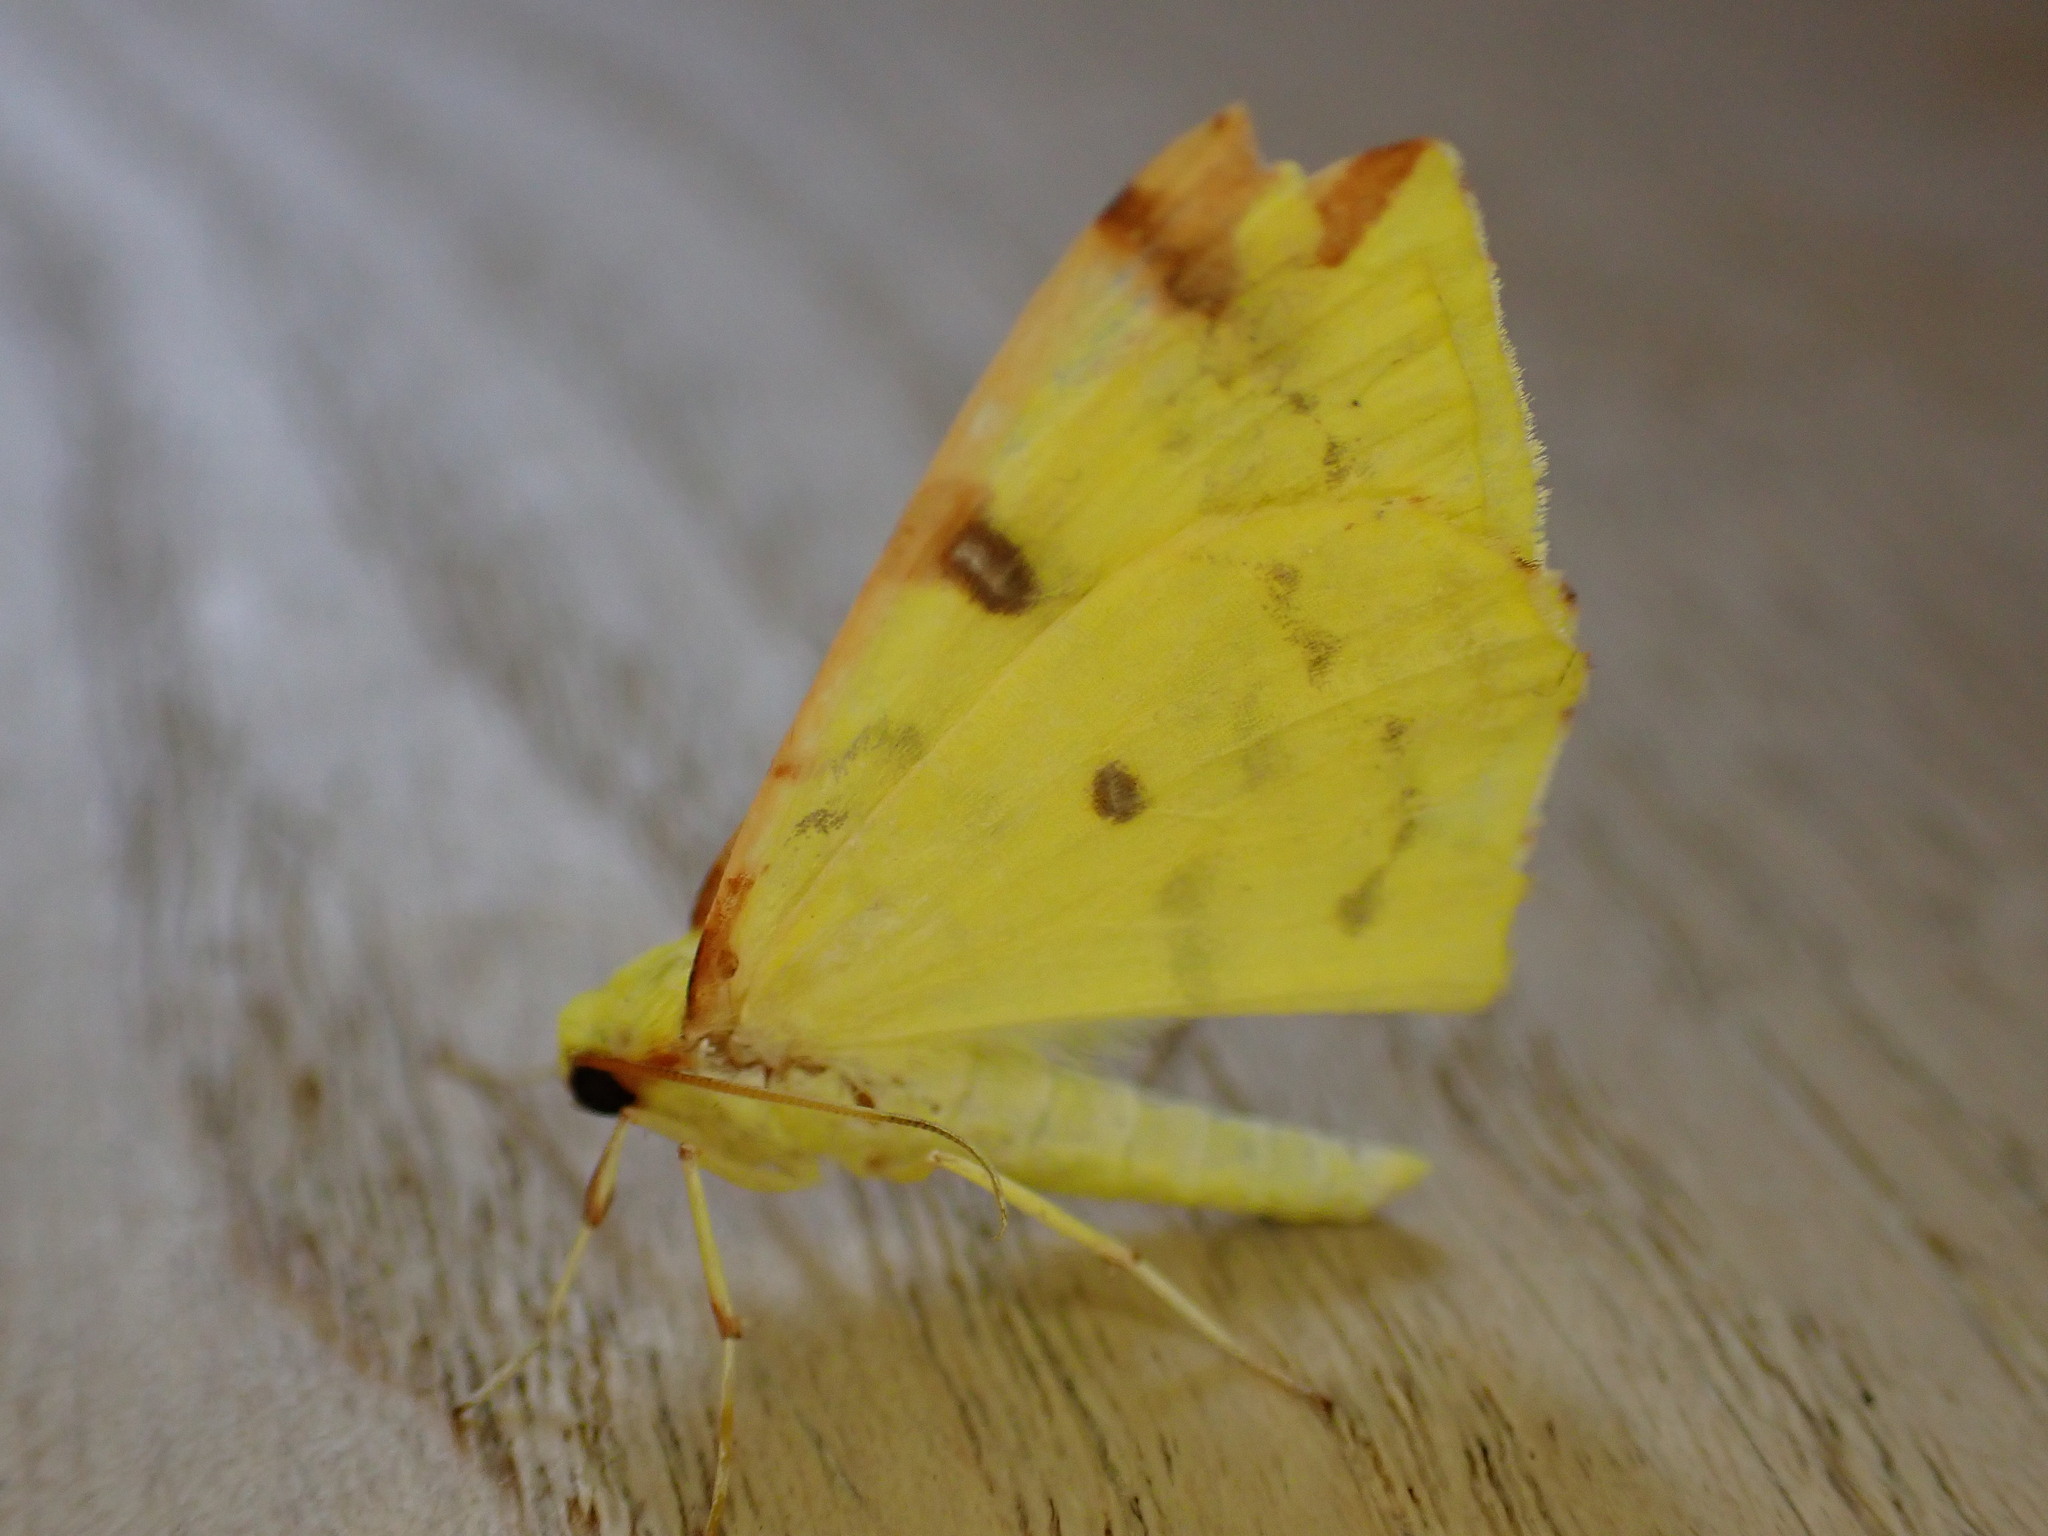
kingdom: Animalia
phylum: Arthropoda
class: Insecta
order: Lepidoptera
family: Geometridae
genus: Opisthograptis
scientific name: Opisthograptis luteolata
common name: Brimstone moth
